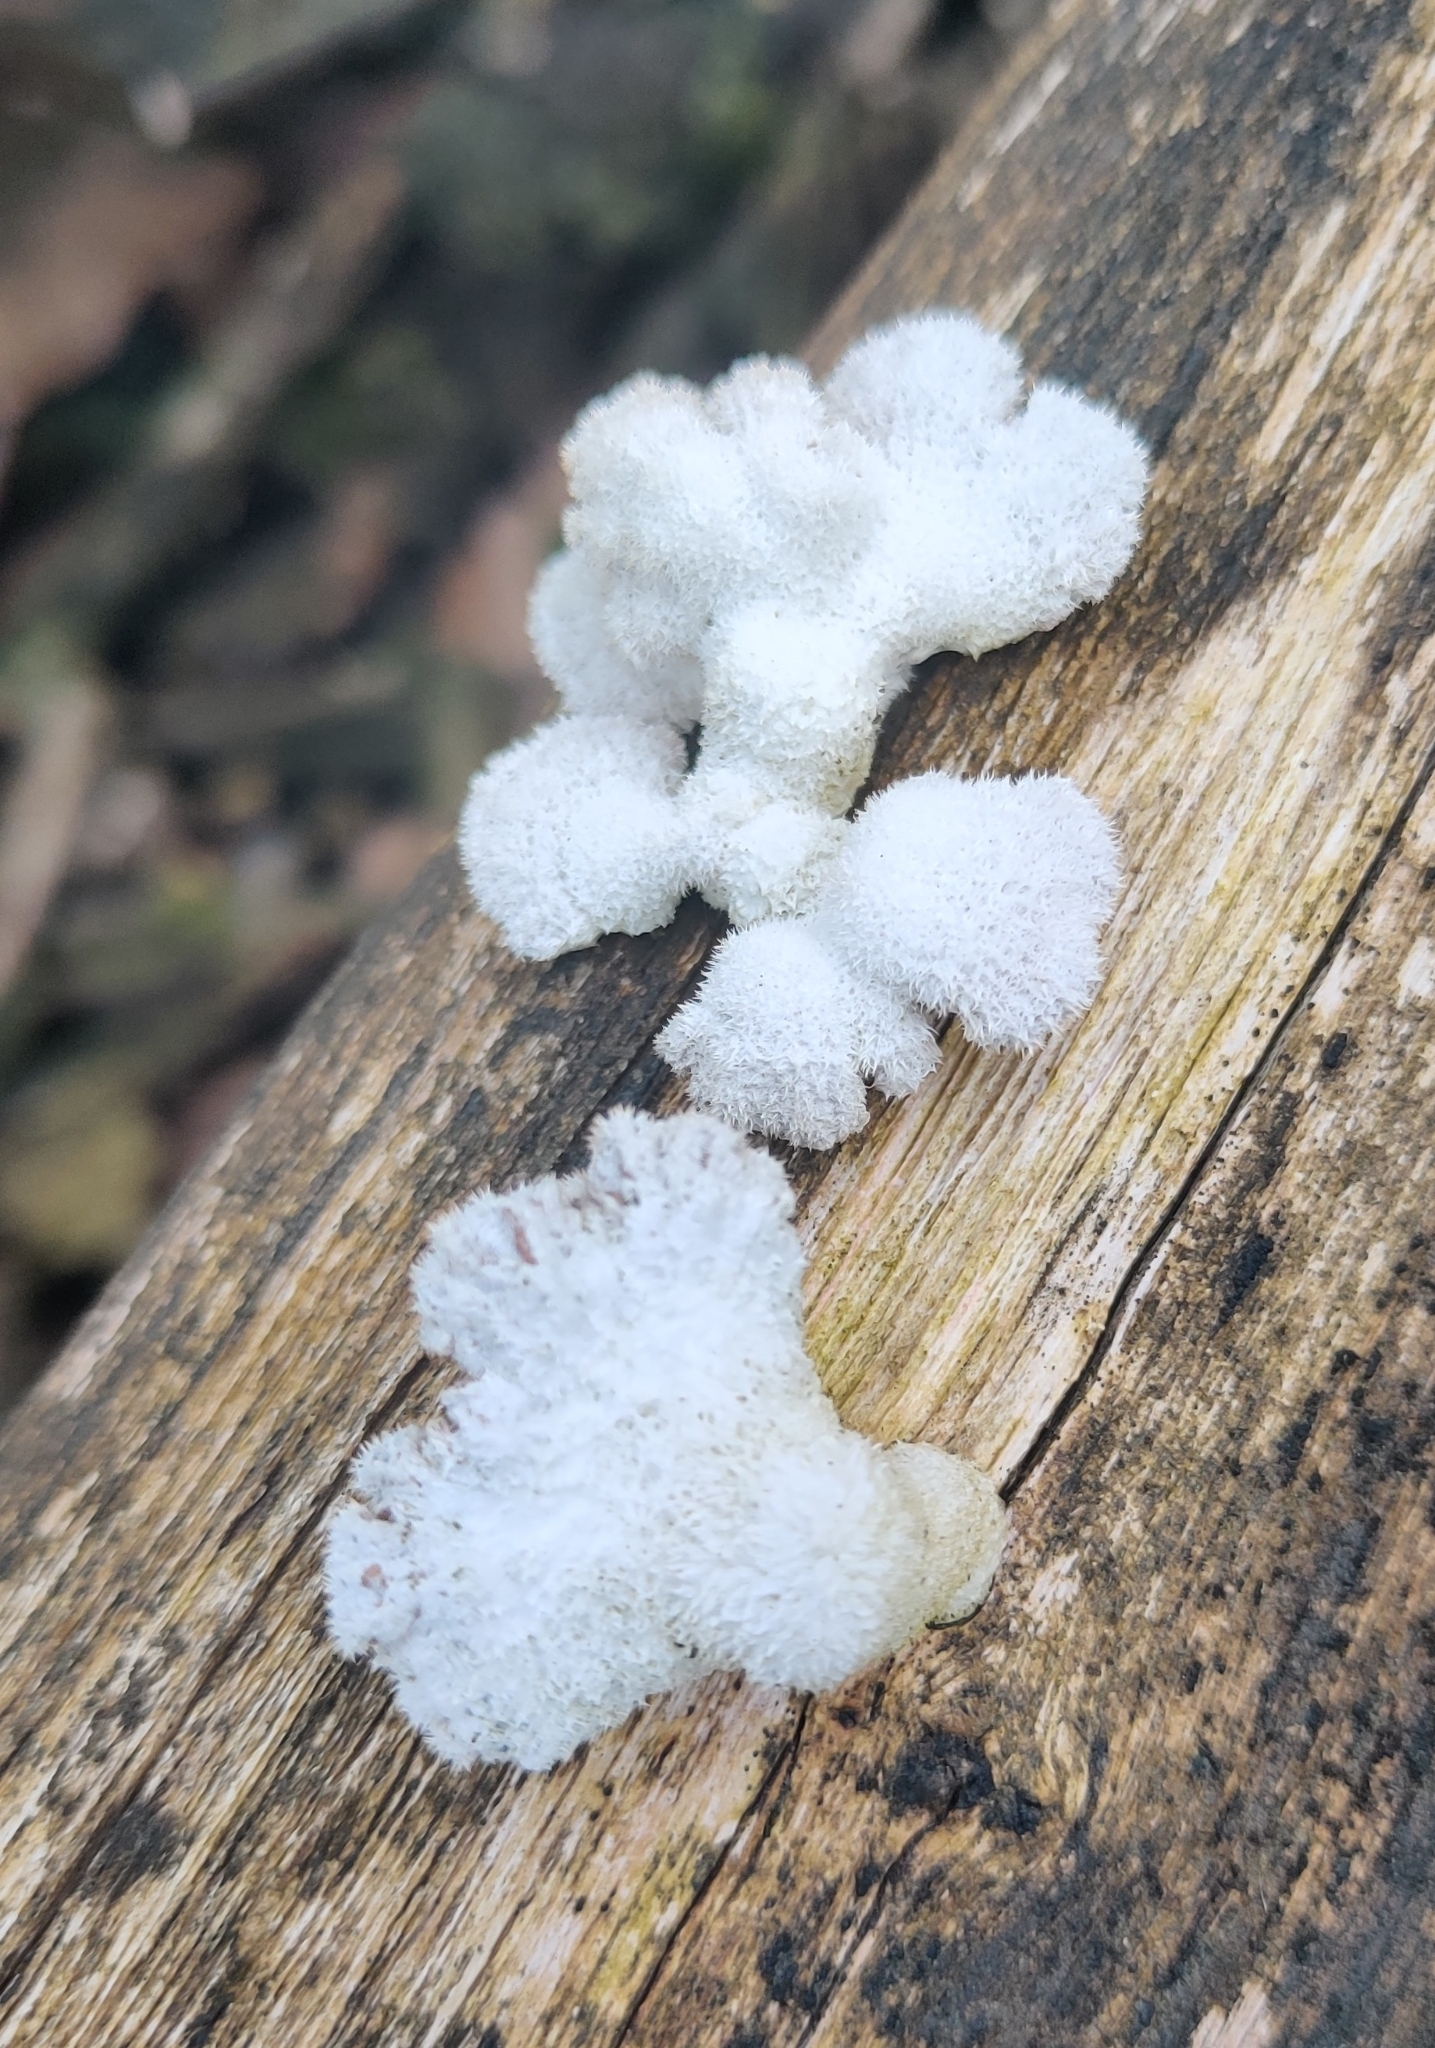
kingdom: Fungi
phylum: Basidiomycota
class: Agaricomycetes
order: Agaricales
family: Schizophyllaceae
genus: Schizophyllum
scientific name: Schizophyllum commune
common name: Common porecrust
